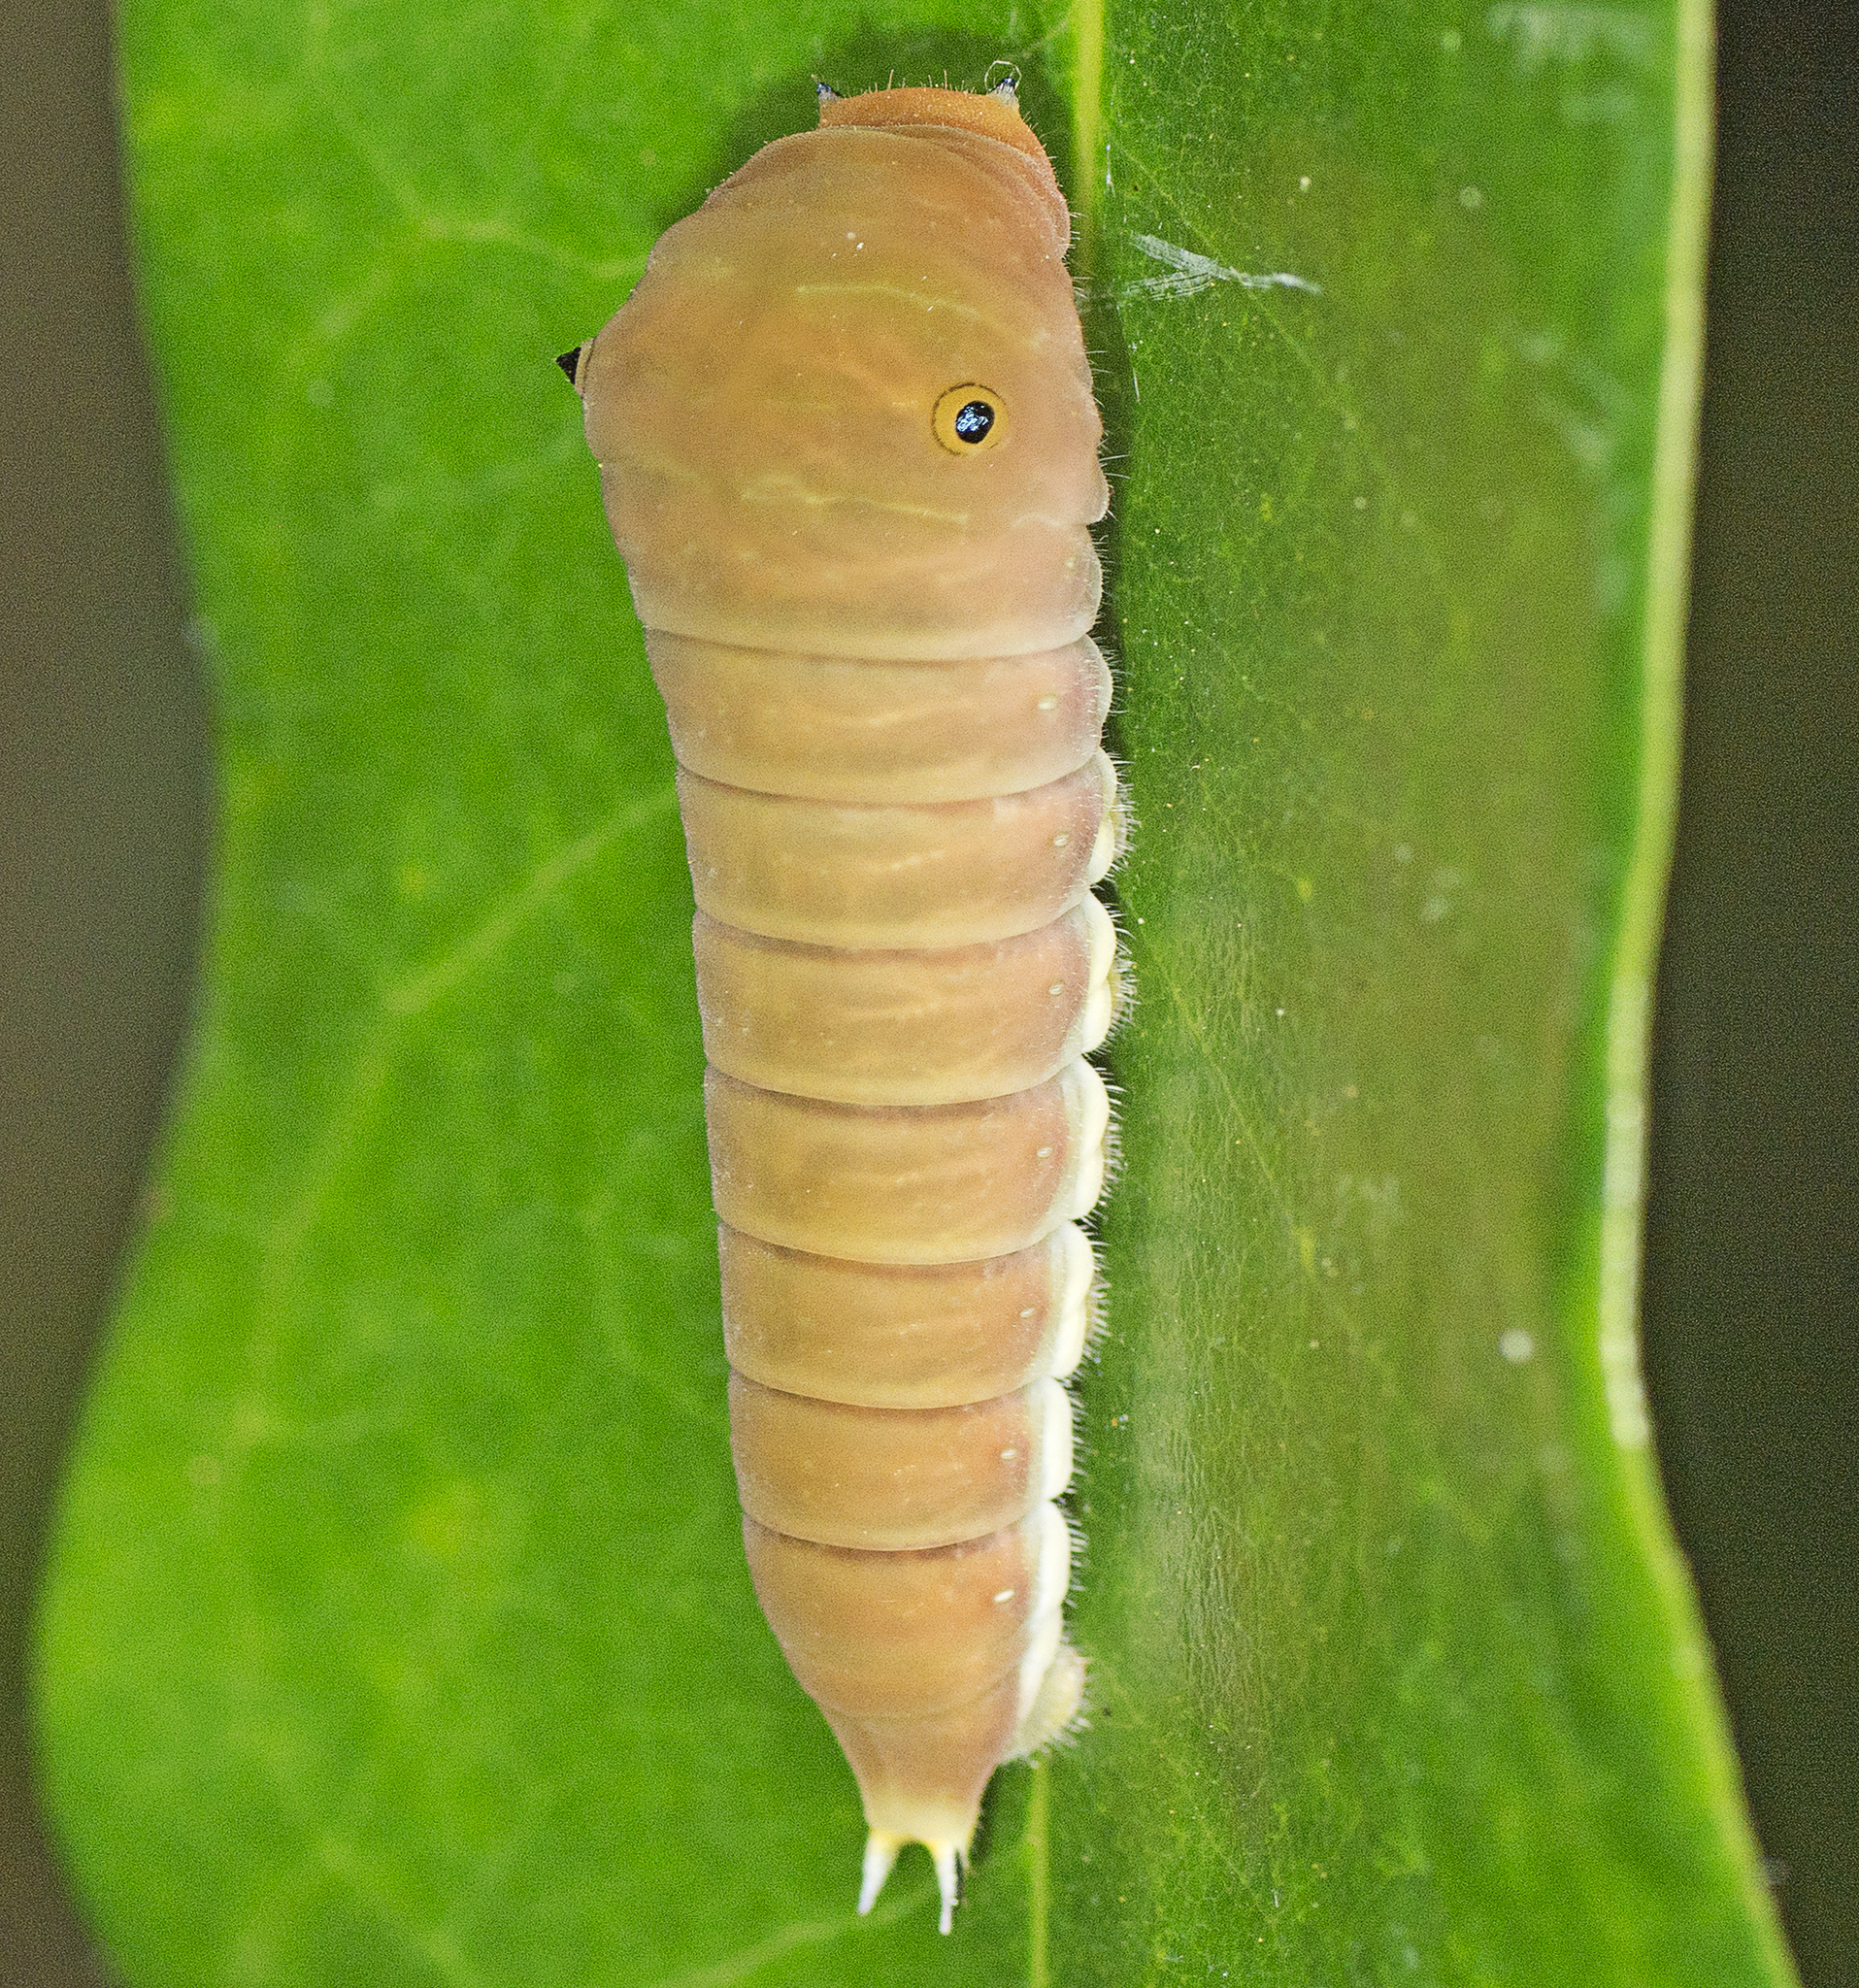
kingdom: Animalia
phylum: Arthropoda
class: Insecta
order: Lepidoptera
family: Papilionidae
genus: Graphium
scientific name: Graphium eurypylus
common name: Great jay
